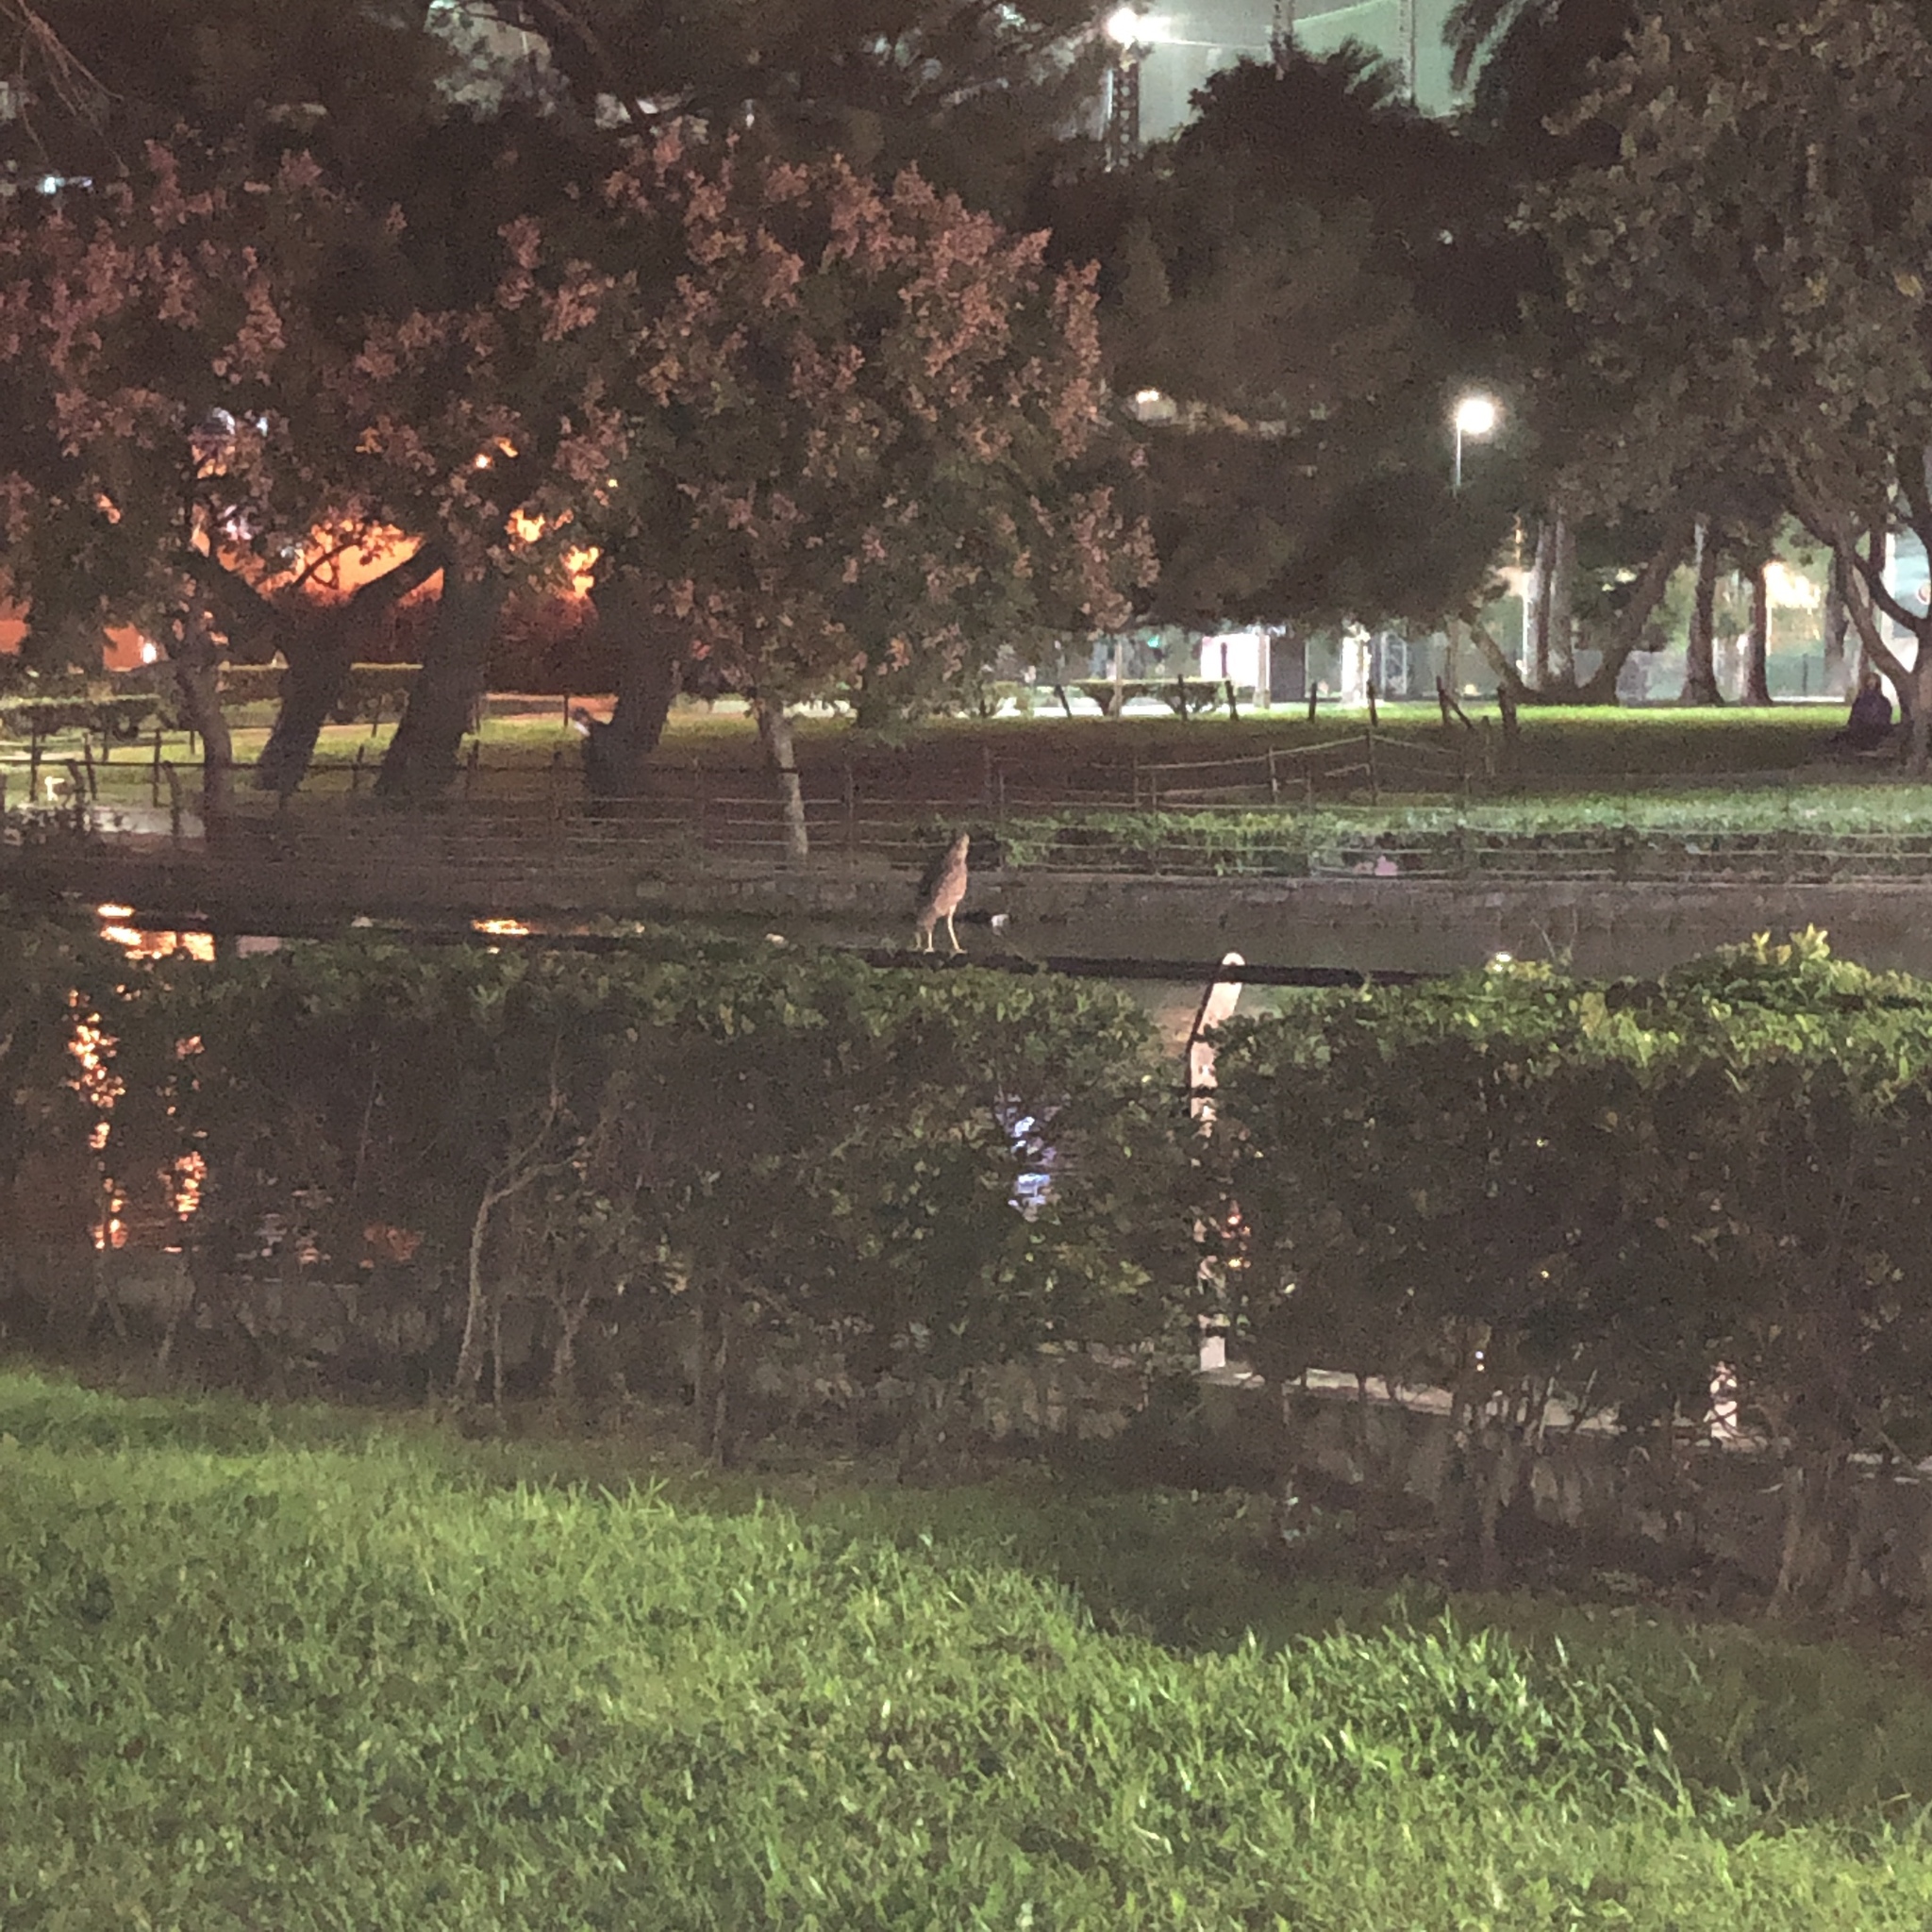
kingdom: Animalia
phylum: Chordata
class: Aves
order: Pelecaniformes
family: Ardeidae
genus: Nycticorax
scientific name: Nycticorax nycticorax
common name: Black-crowned night heron
